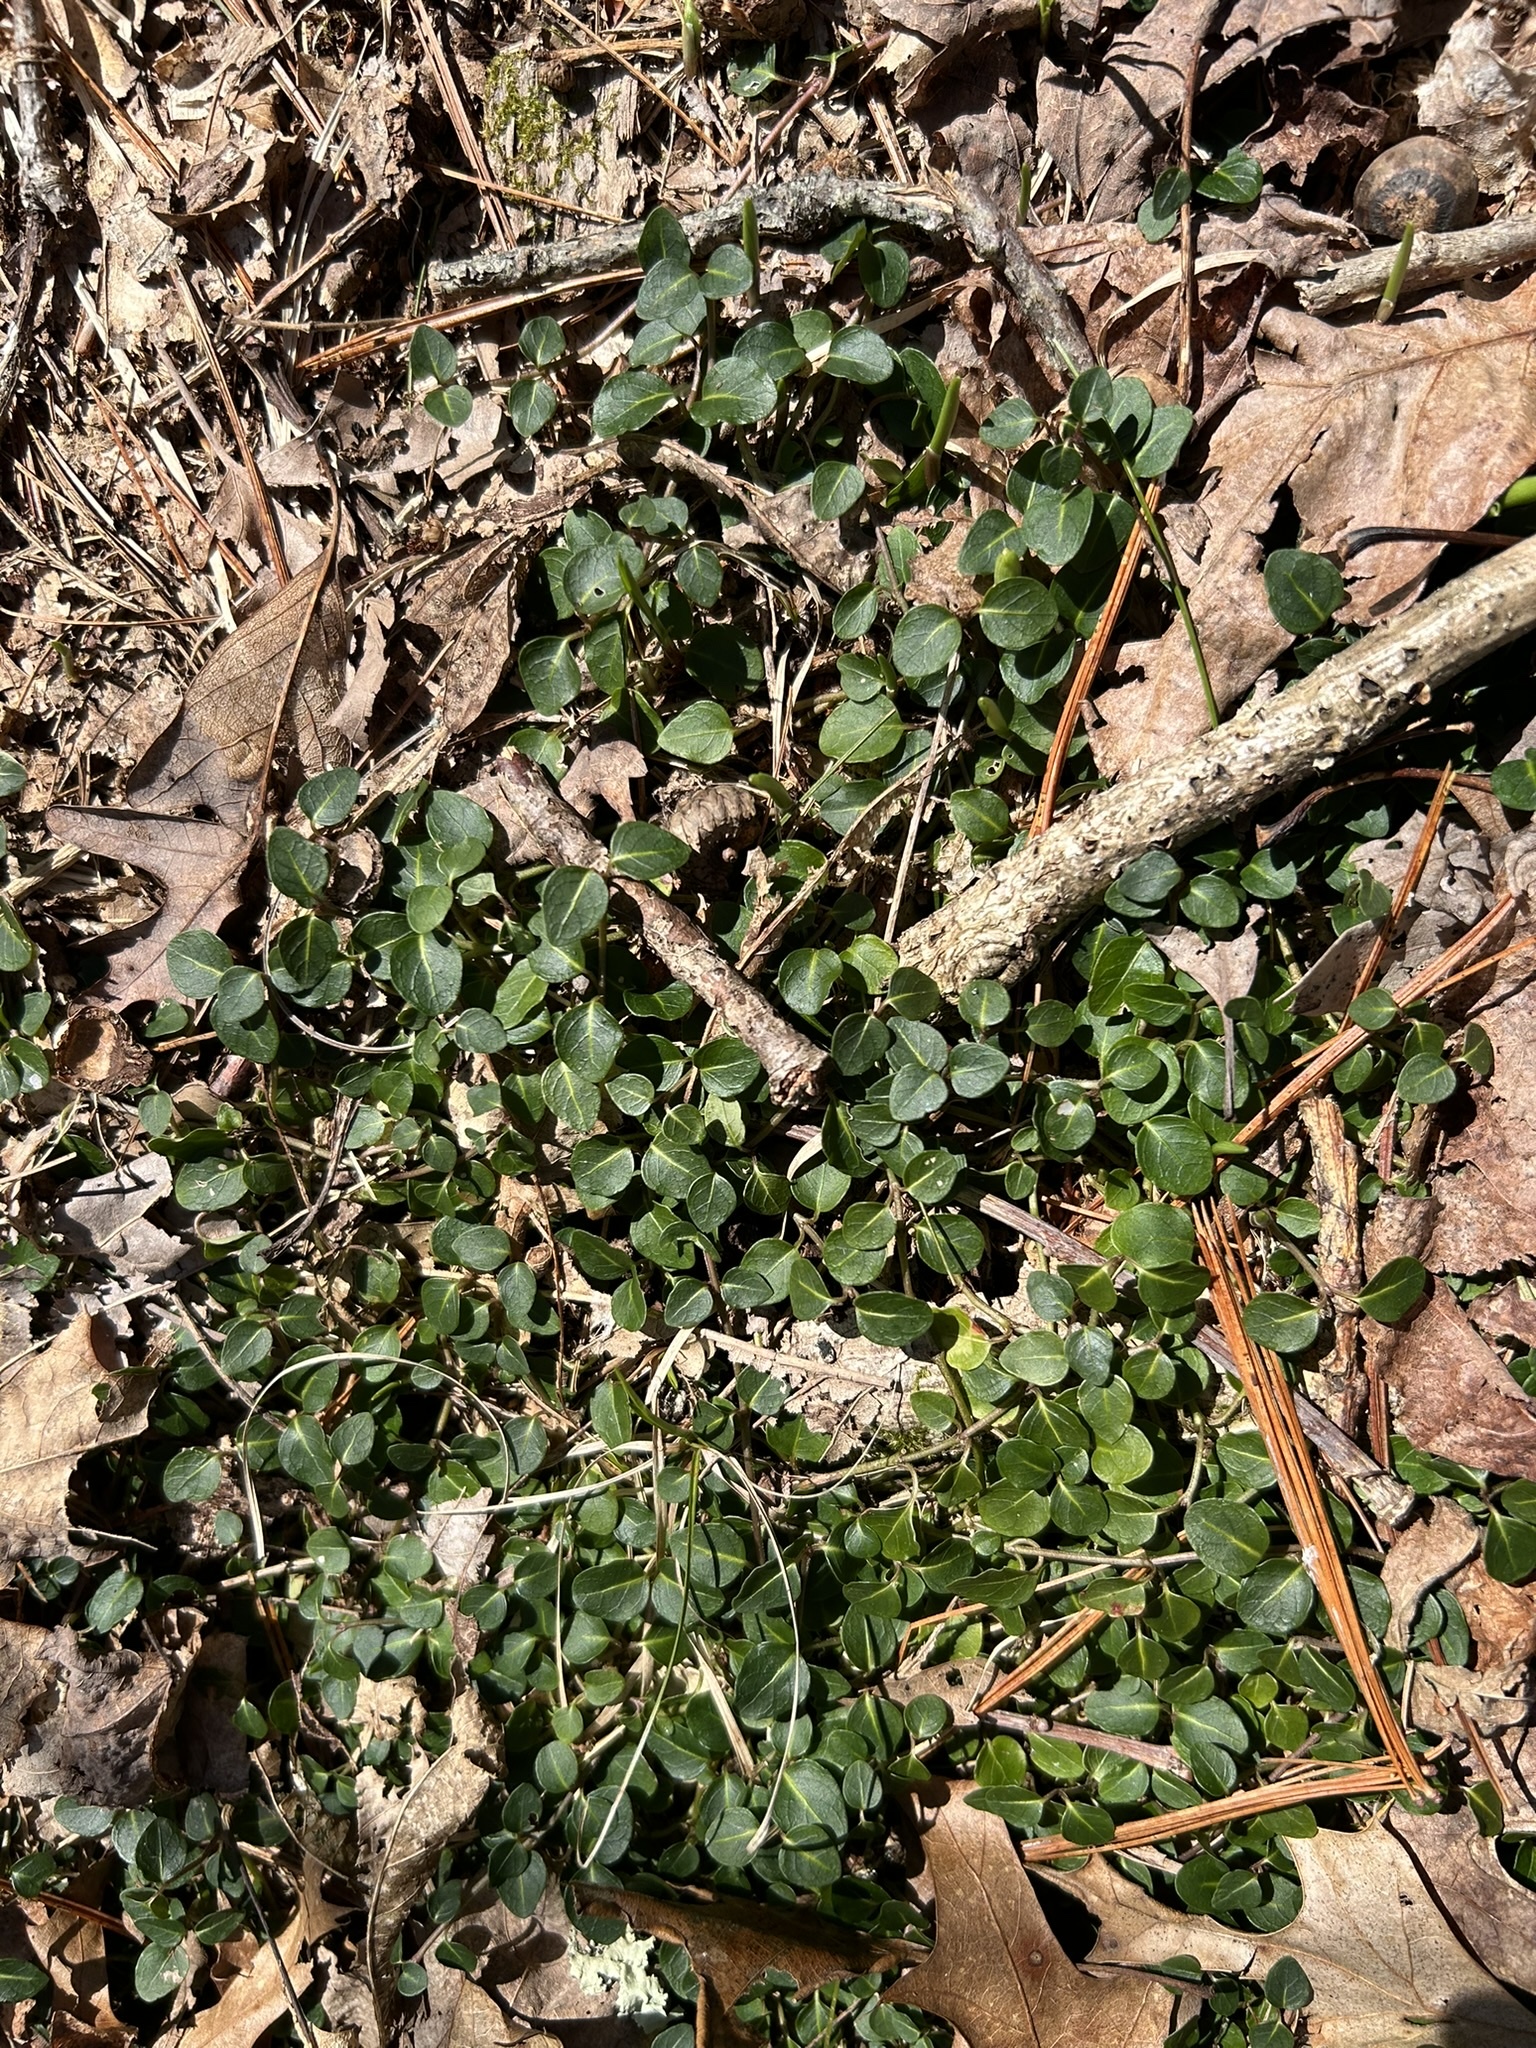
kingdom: Plantae
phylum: Tracheophyta
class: Magnoliopsida
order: Gentianales
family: Rubiaceae
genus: Mitchella
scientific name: Mitchella repens
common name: Partridge-berry
